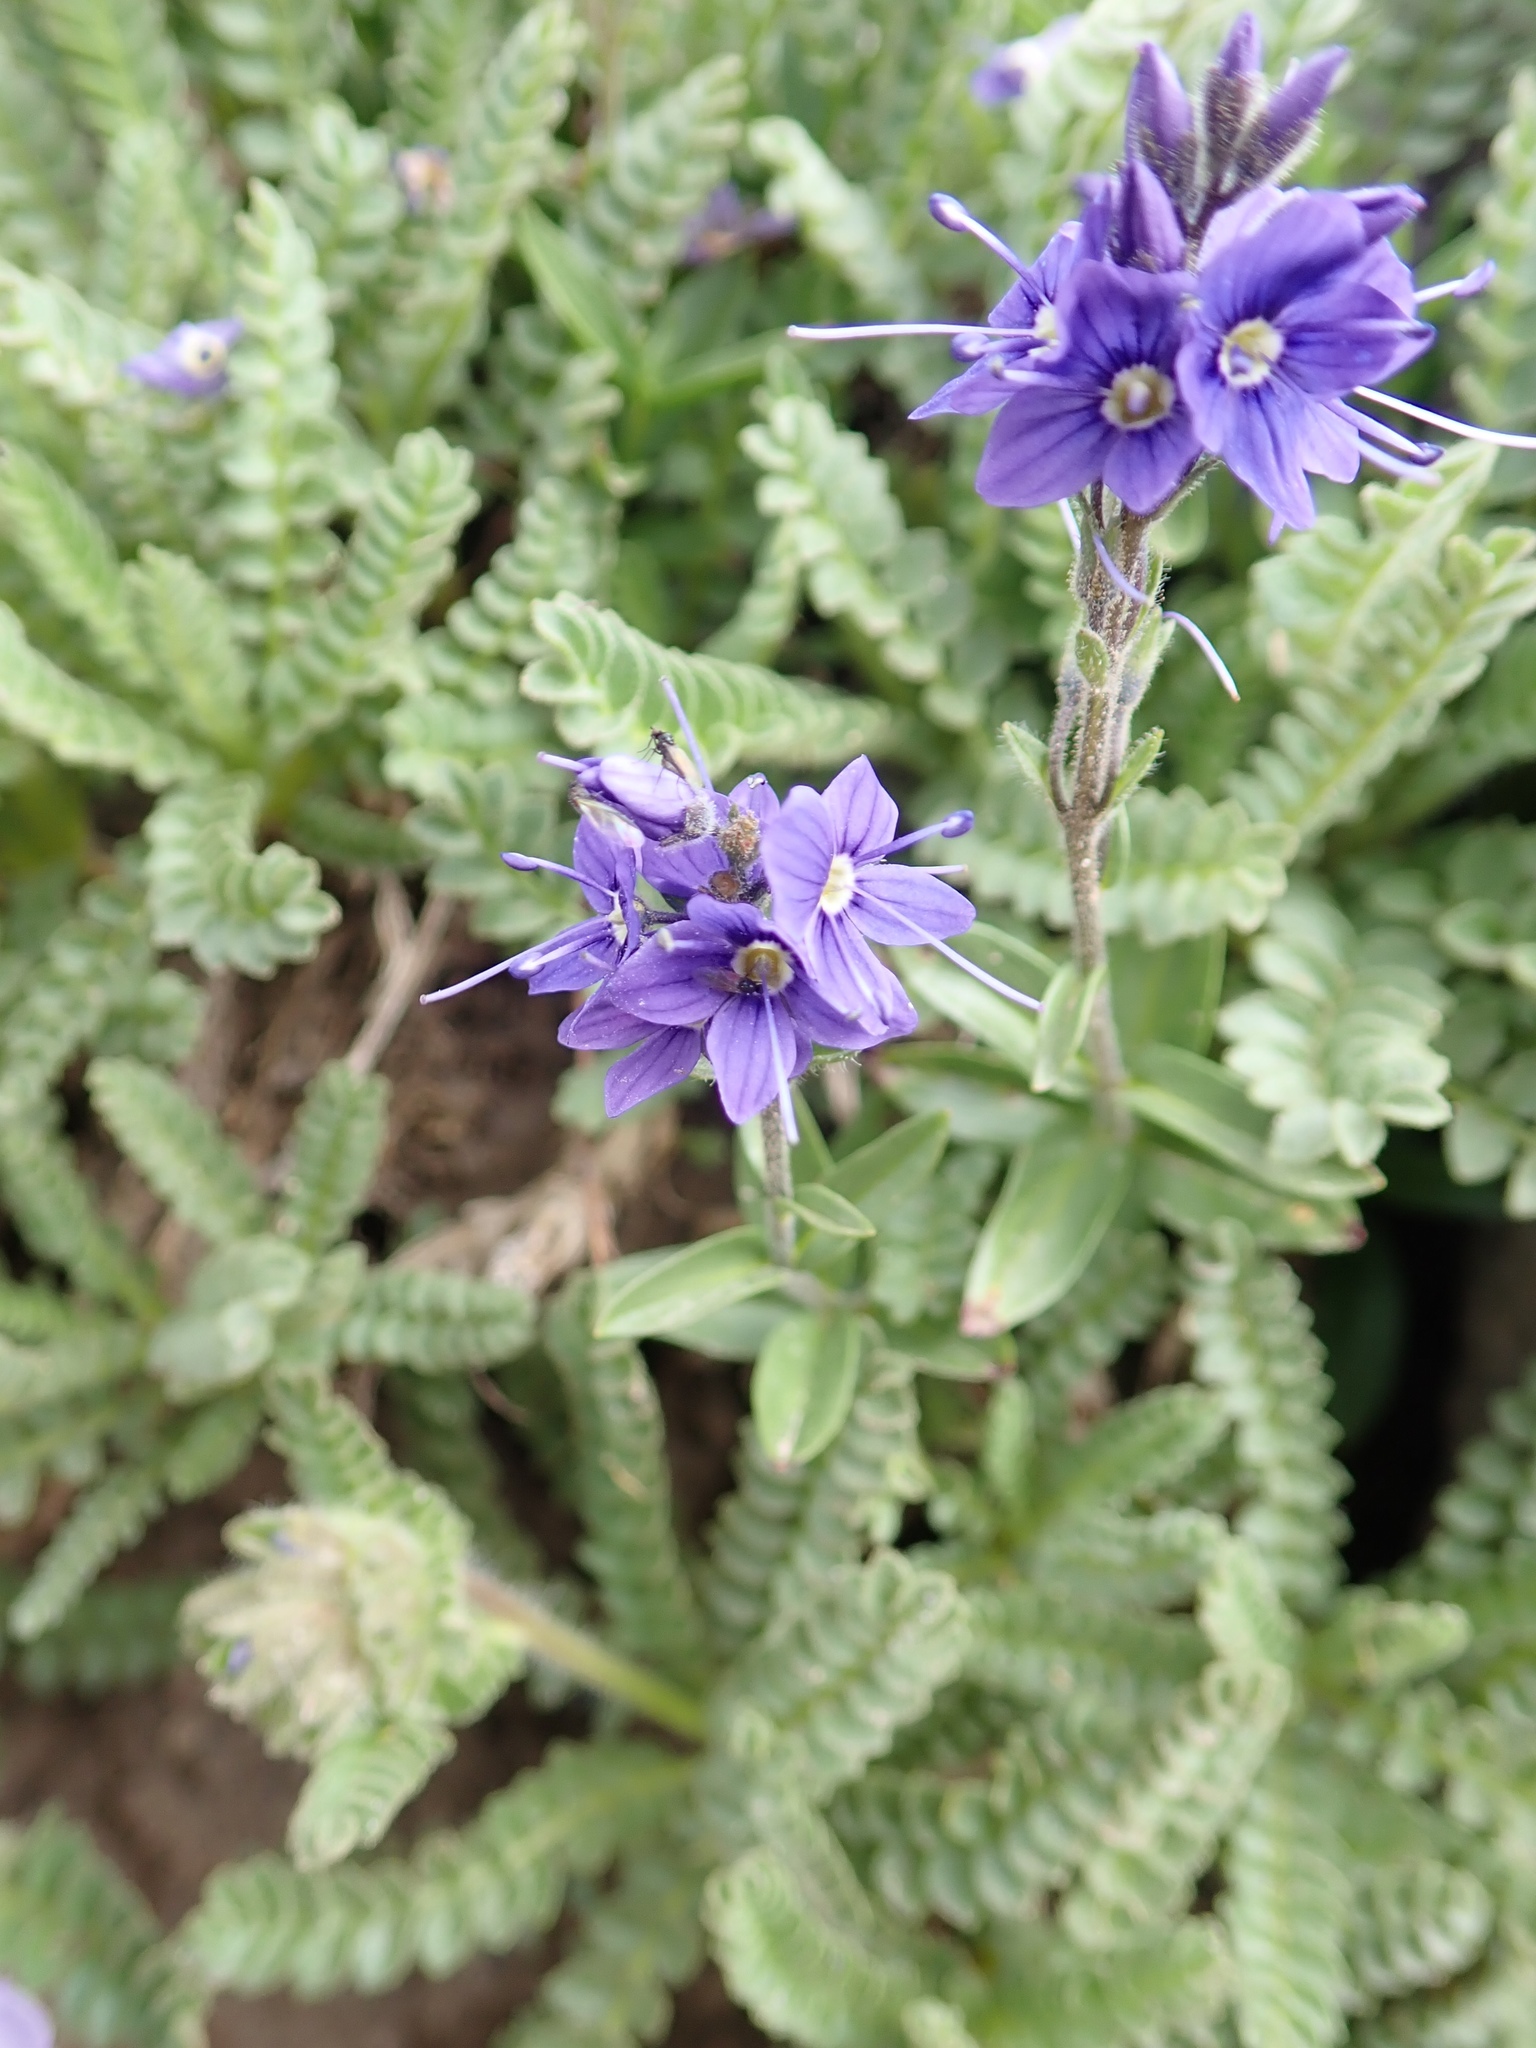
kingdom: Plantae
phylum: Tracheophyta
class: Magnoliopsida
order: Lamiales
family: Plantaginaceae
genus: Veronica
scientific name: Veronica cusickii
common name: Cusick's speedwell
